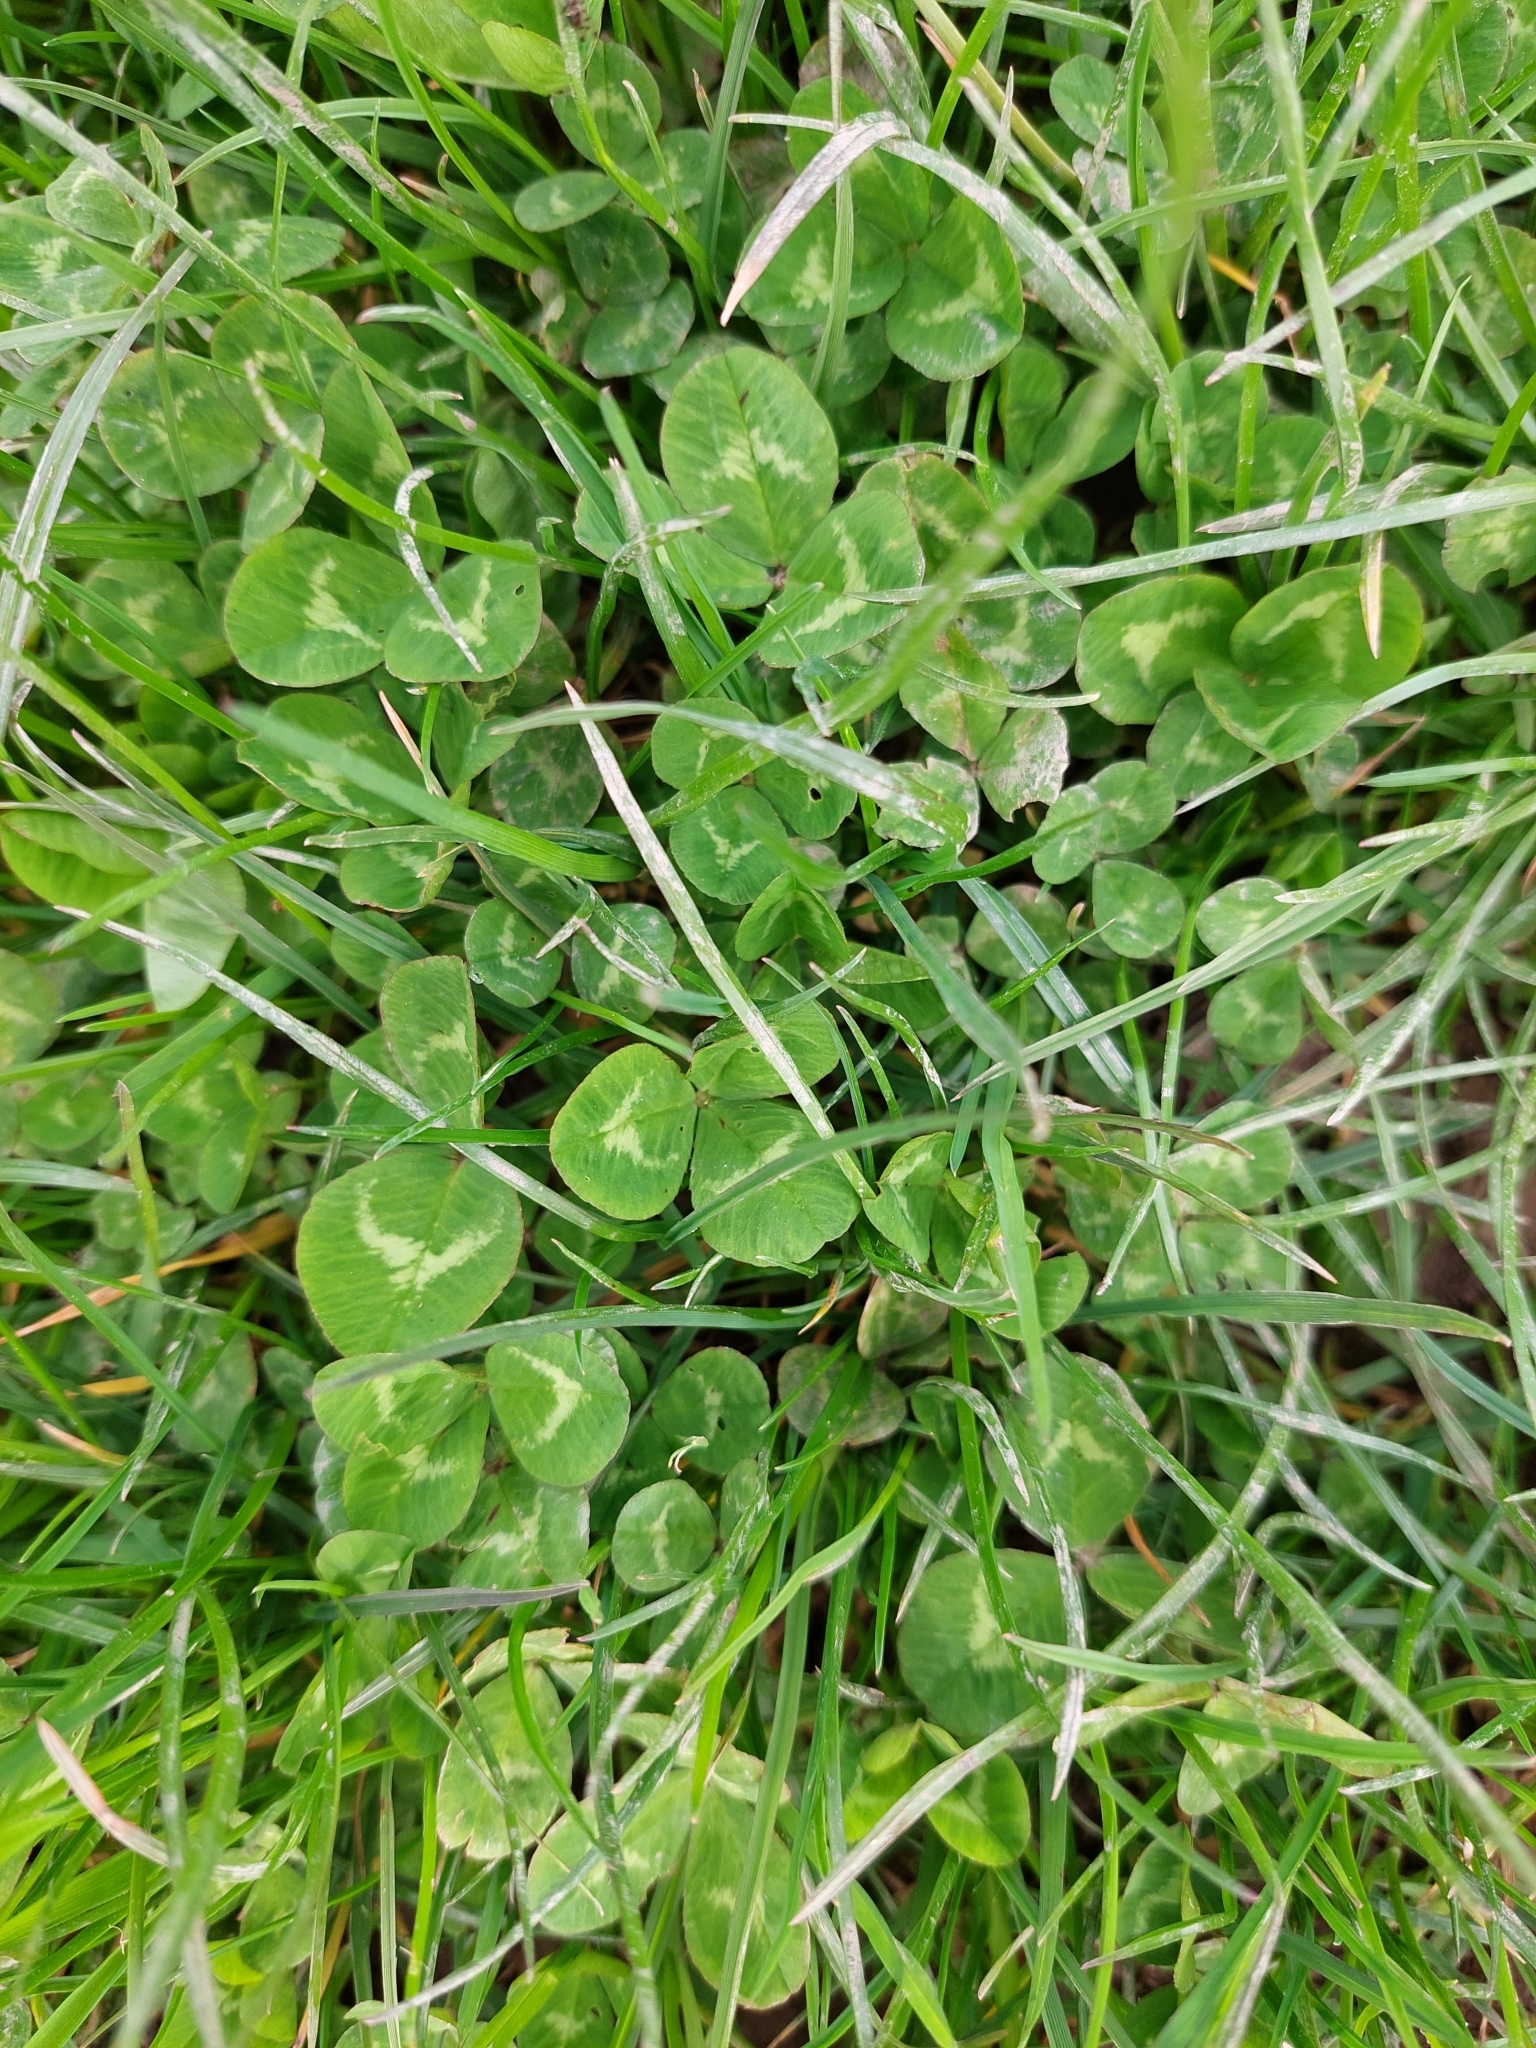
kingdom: Plantae
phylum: Tracheophyta
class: Magnoliopsida
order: Fabales
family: Fabaceae
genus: Trifolium
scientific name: Trifolium repens
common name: White clover
